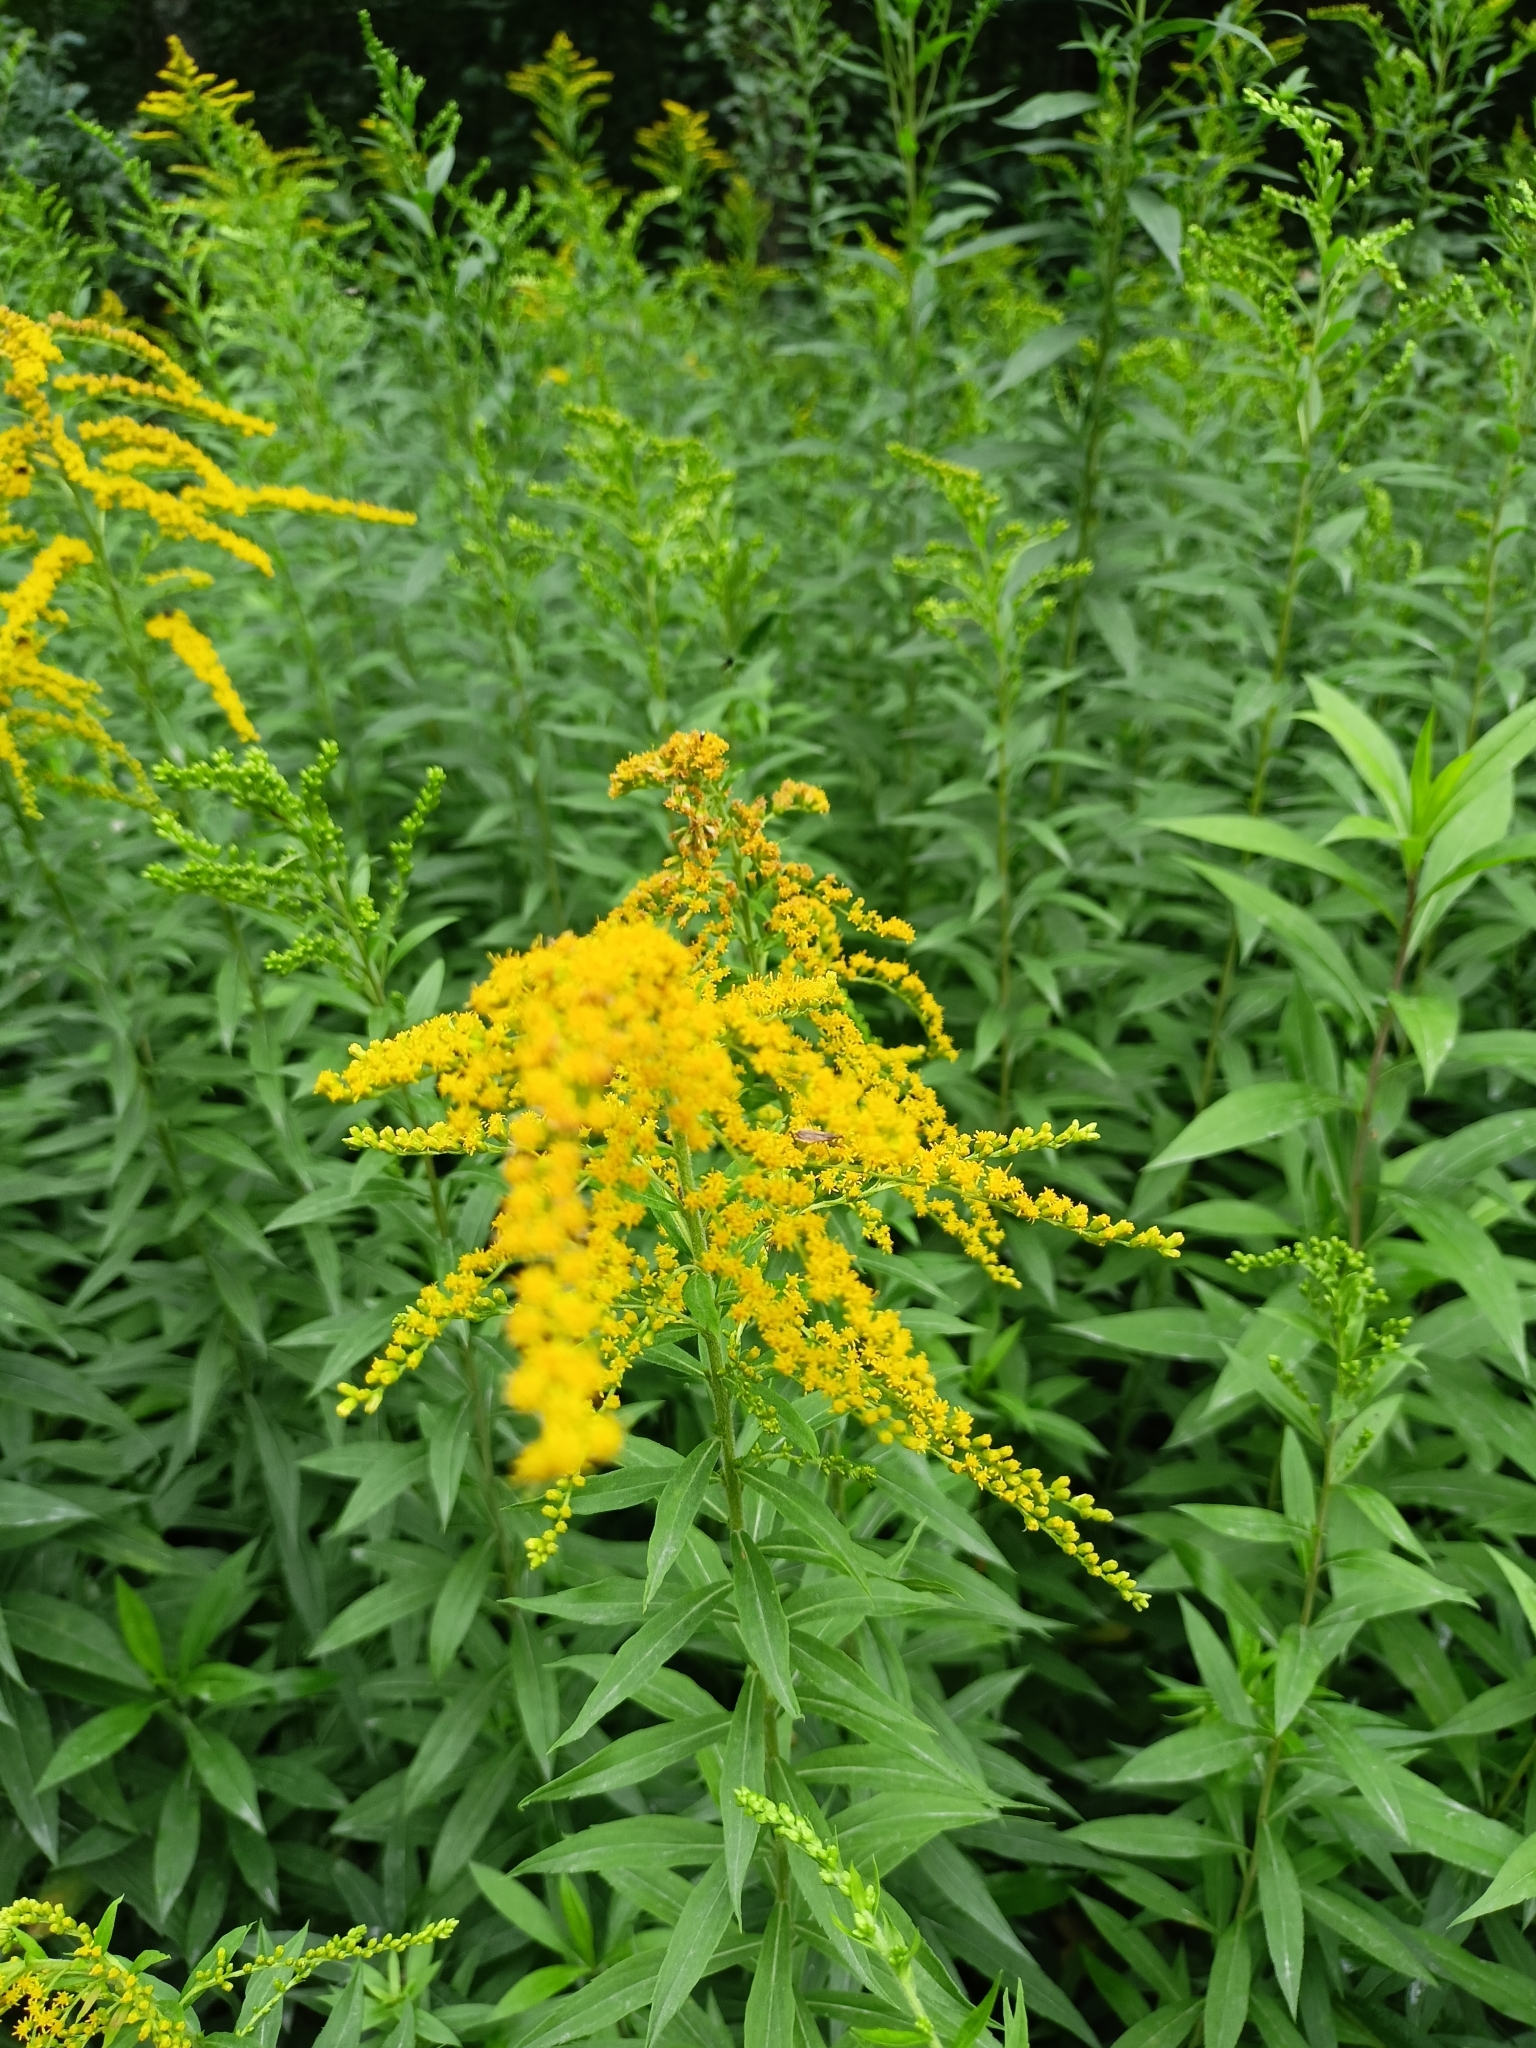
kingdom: Plantae
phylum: Tracheophyta
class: Magnoliopsida
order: Asterales
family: Asteraceae
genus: Solidago
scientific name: Solidago canadensis
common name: Canada goldenrod
